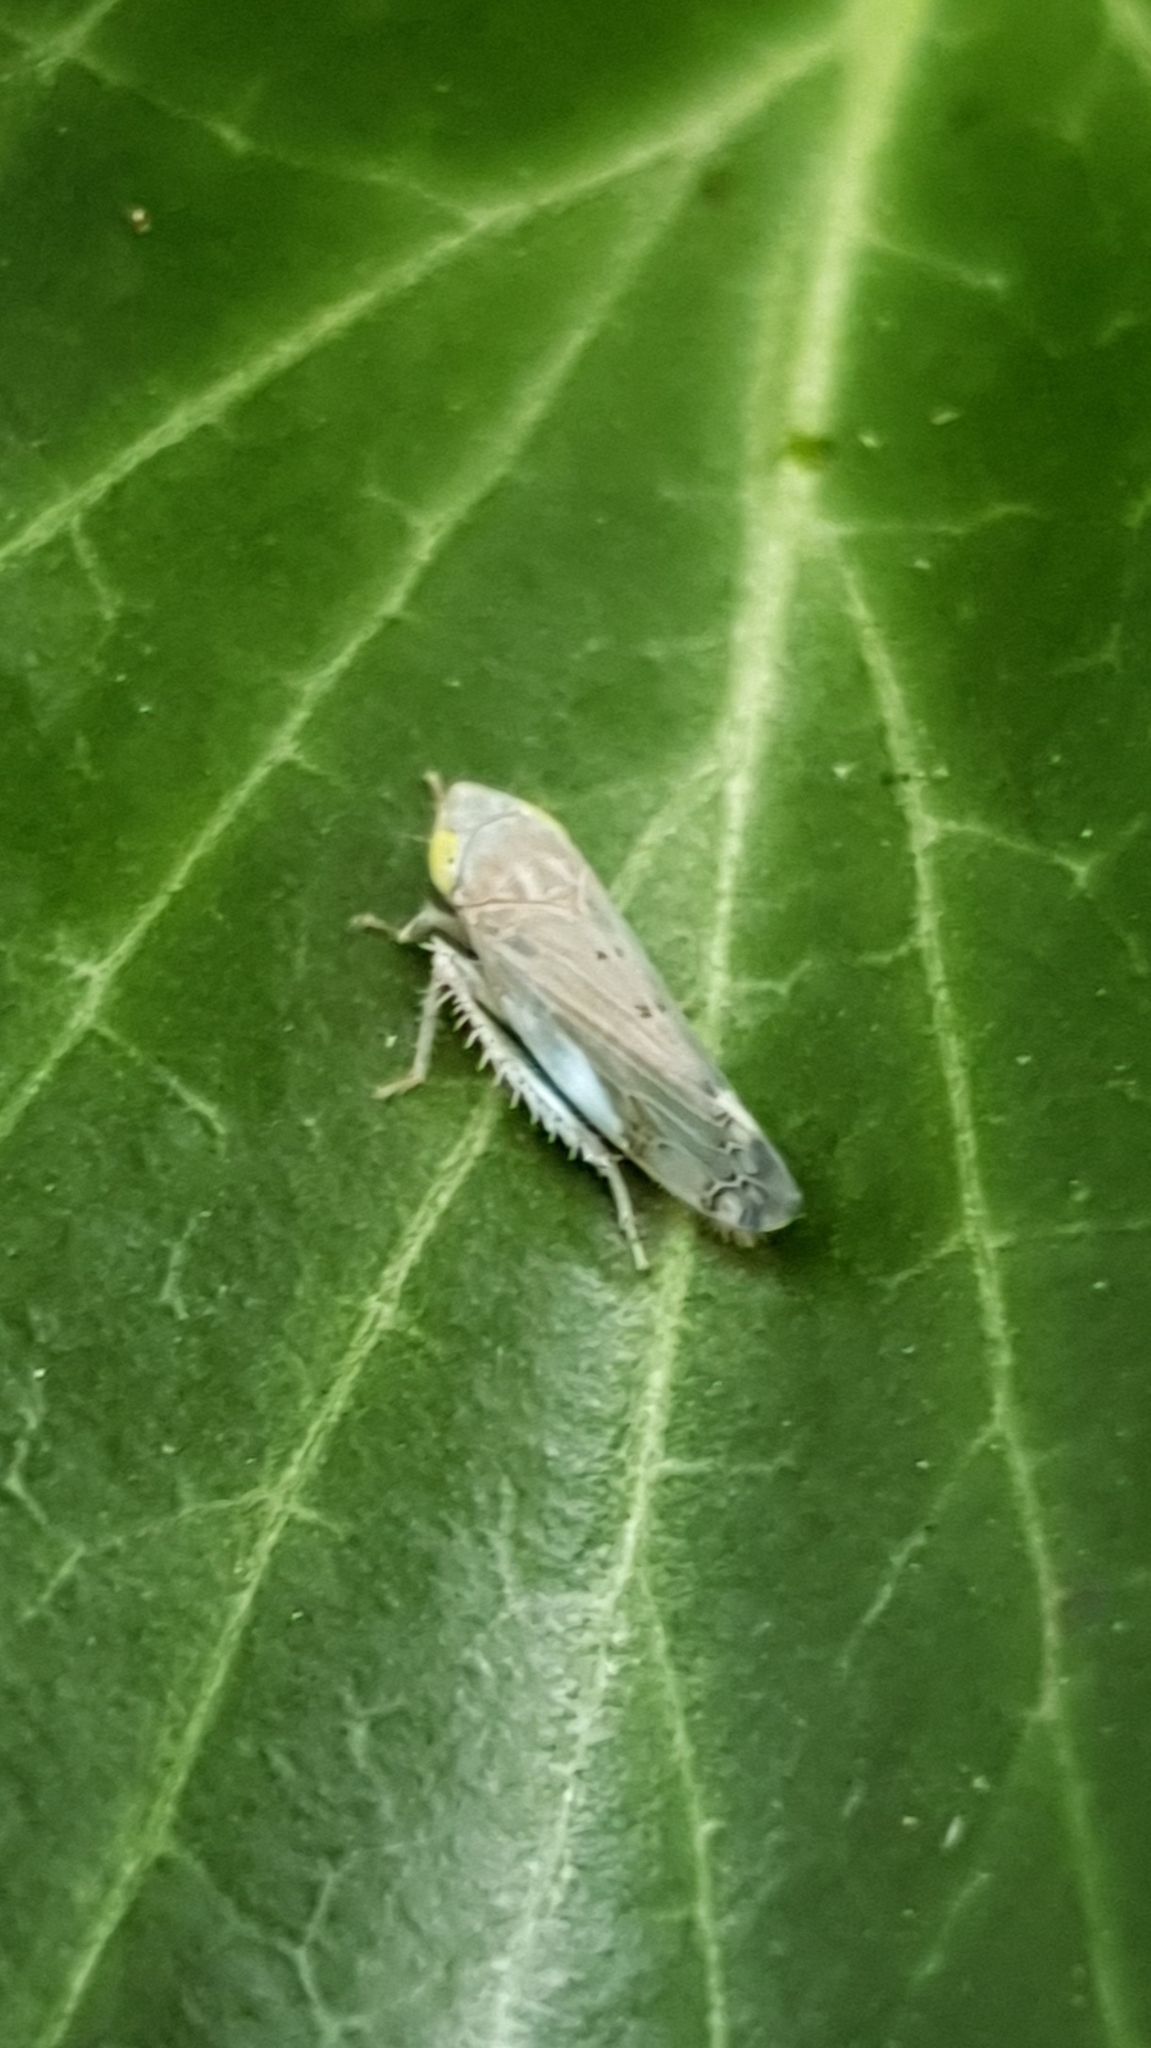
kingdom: Animalia
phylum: Arthropoda
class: Insecta
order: Hemiptera
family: Cicadellidae
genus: Synophropsis
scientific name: Synophropsis lauri
